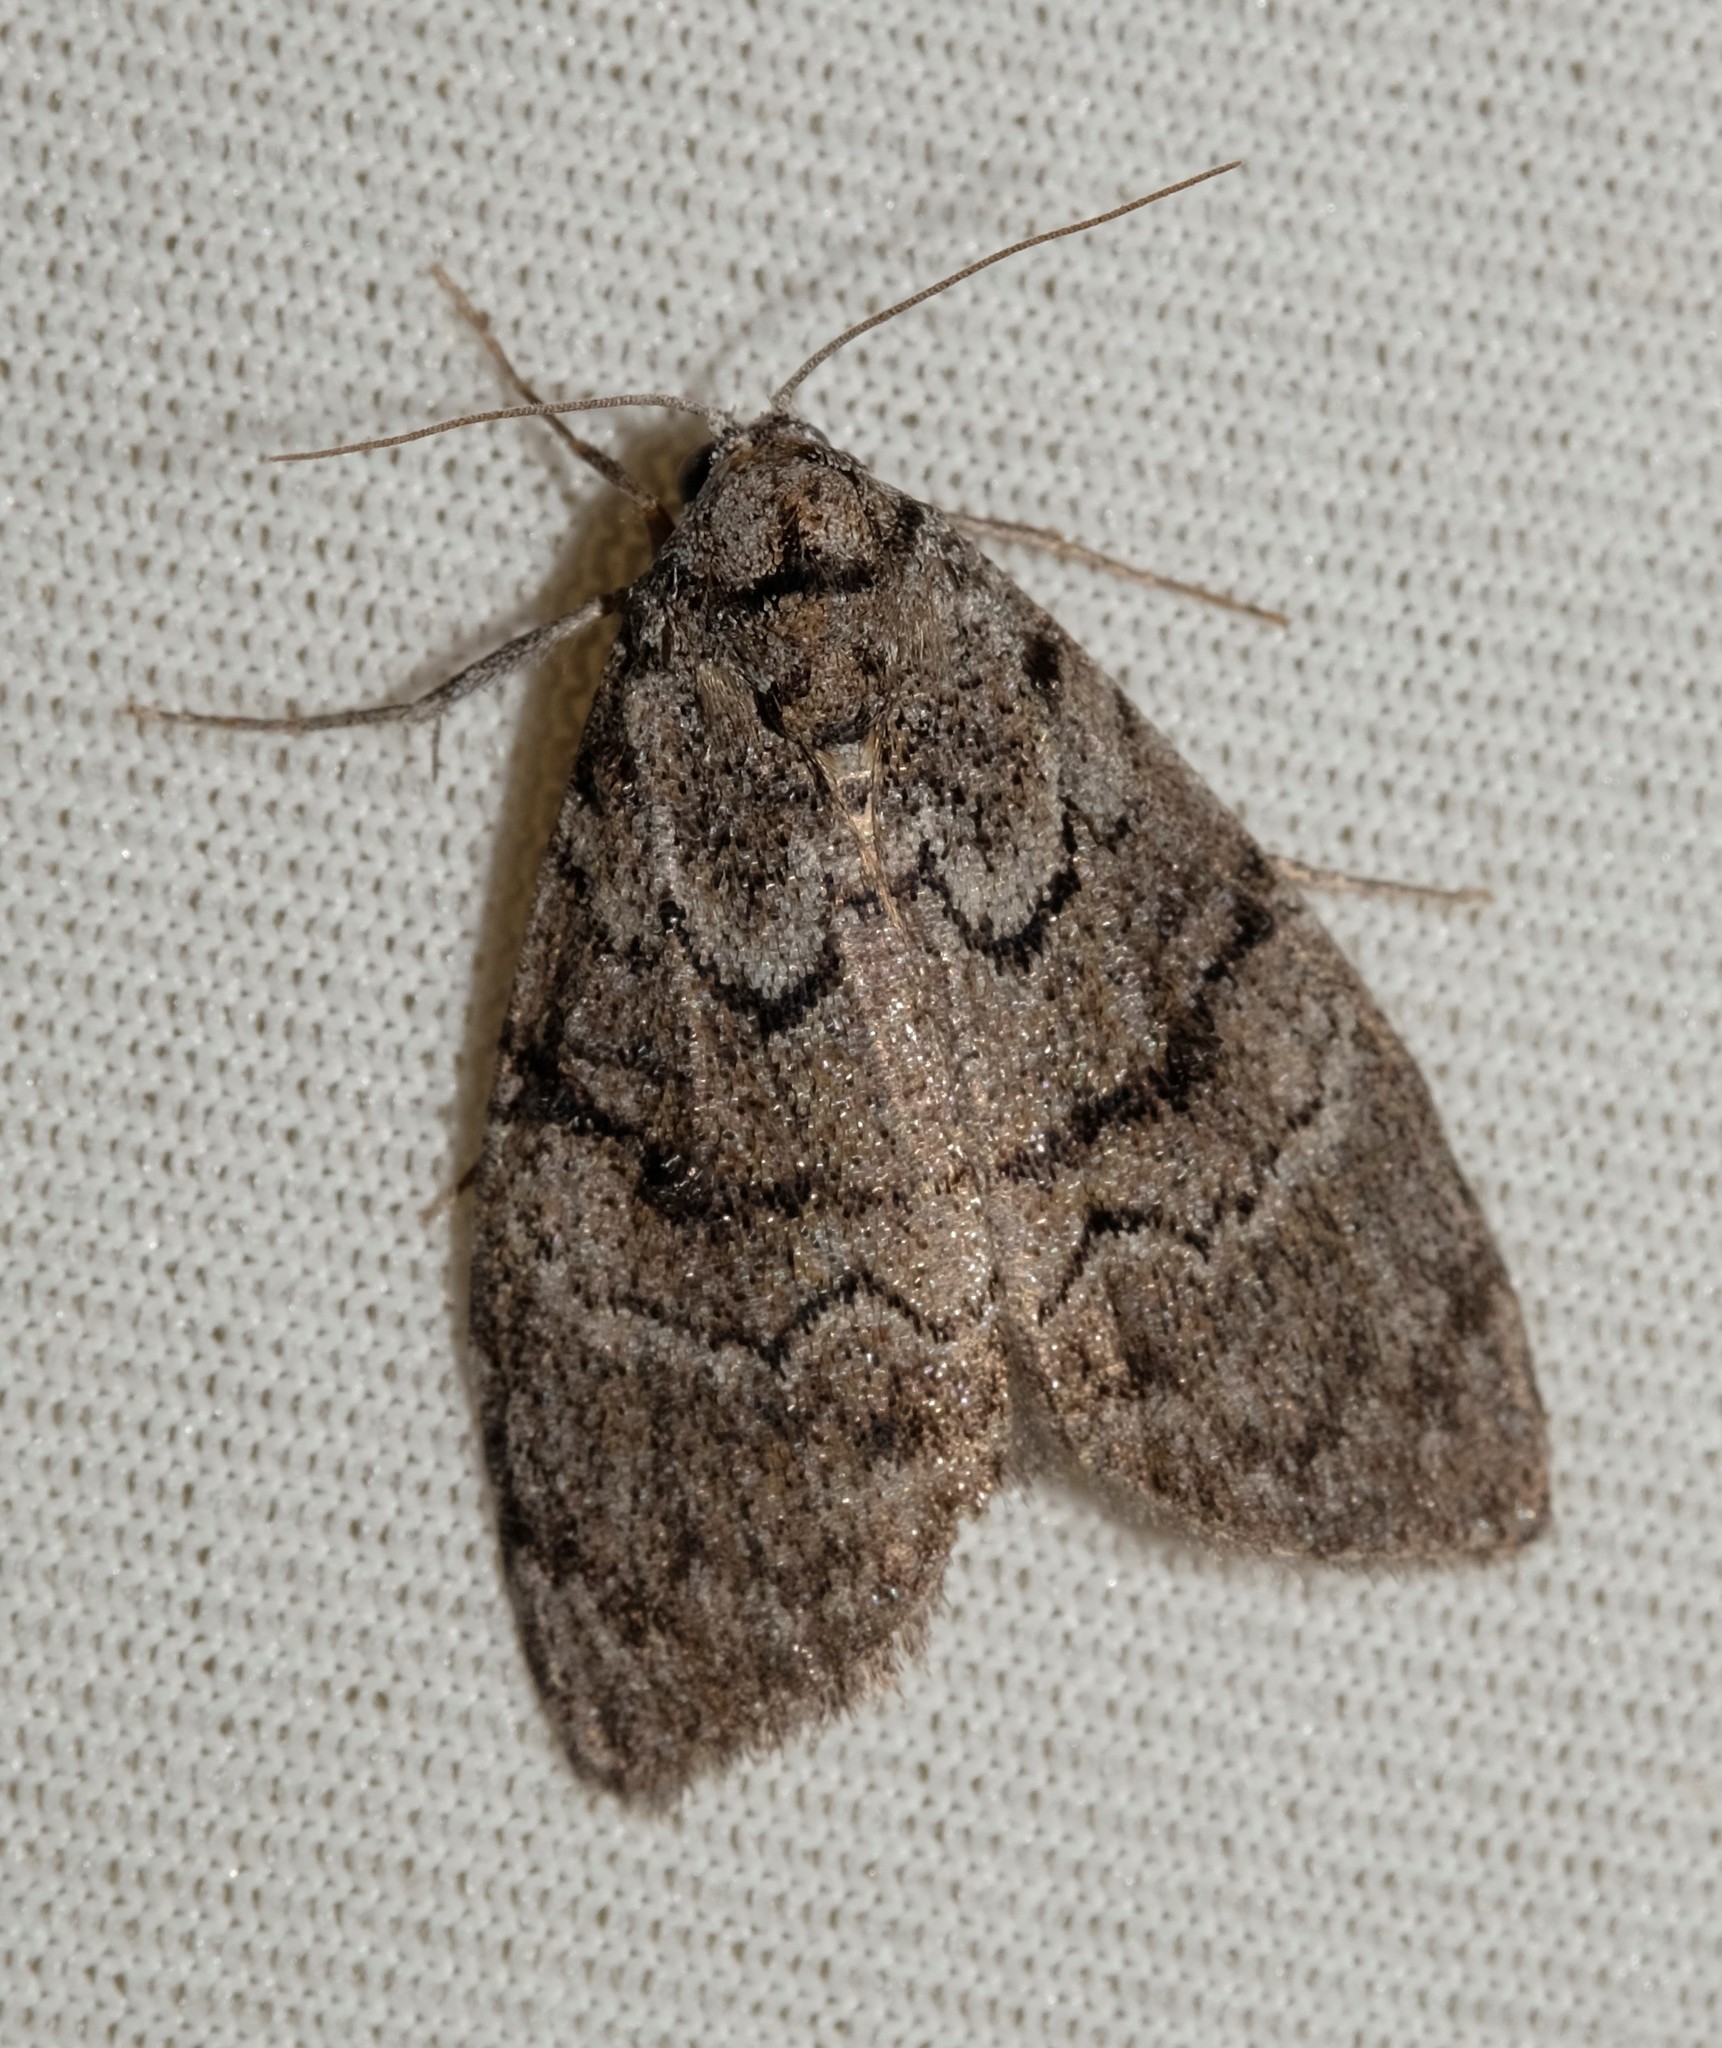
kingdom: Animalia
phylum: Arthropoda
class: Insecta
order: Lepidoptera
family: Nolidae
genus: Uraba
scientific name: Uraba lugens
